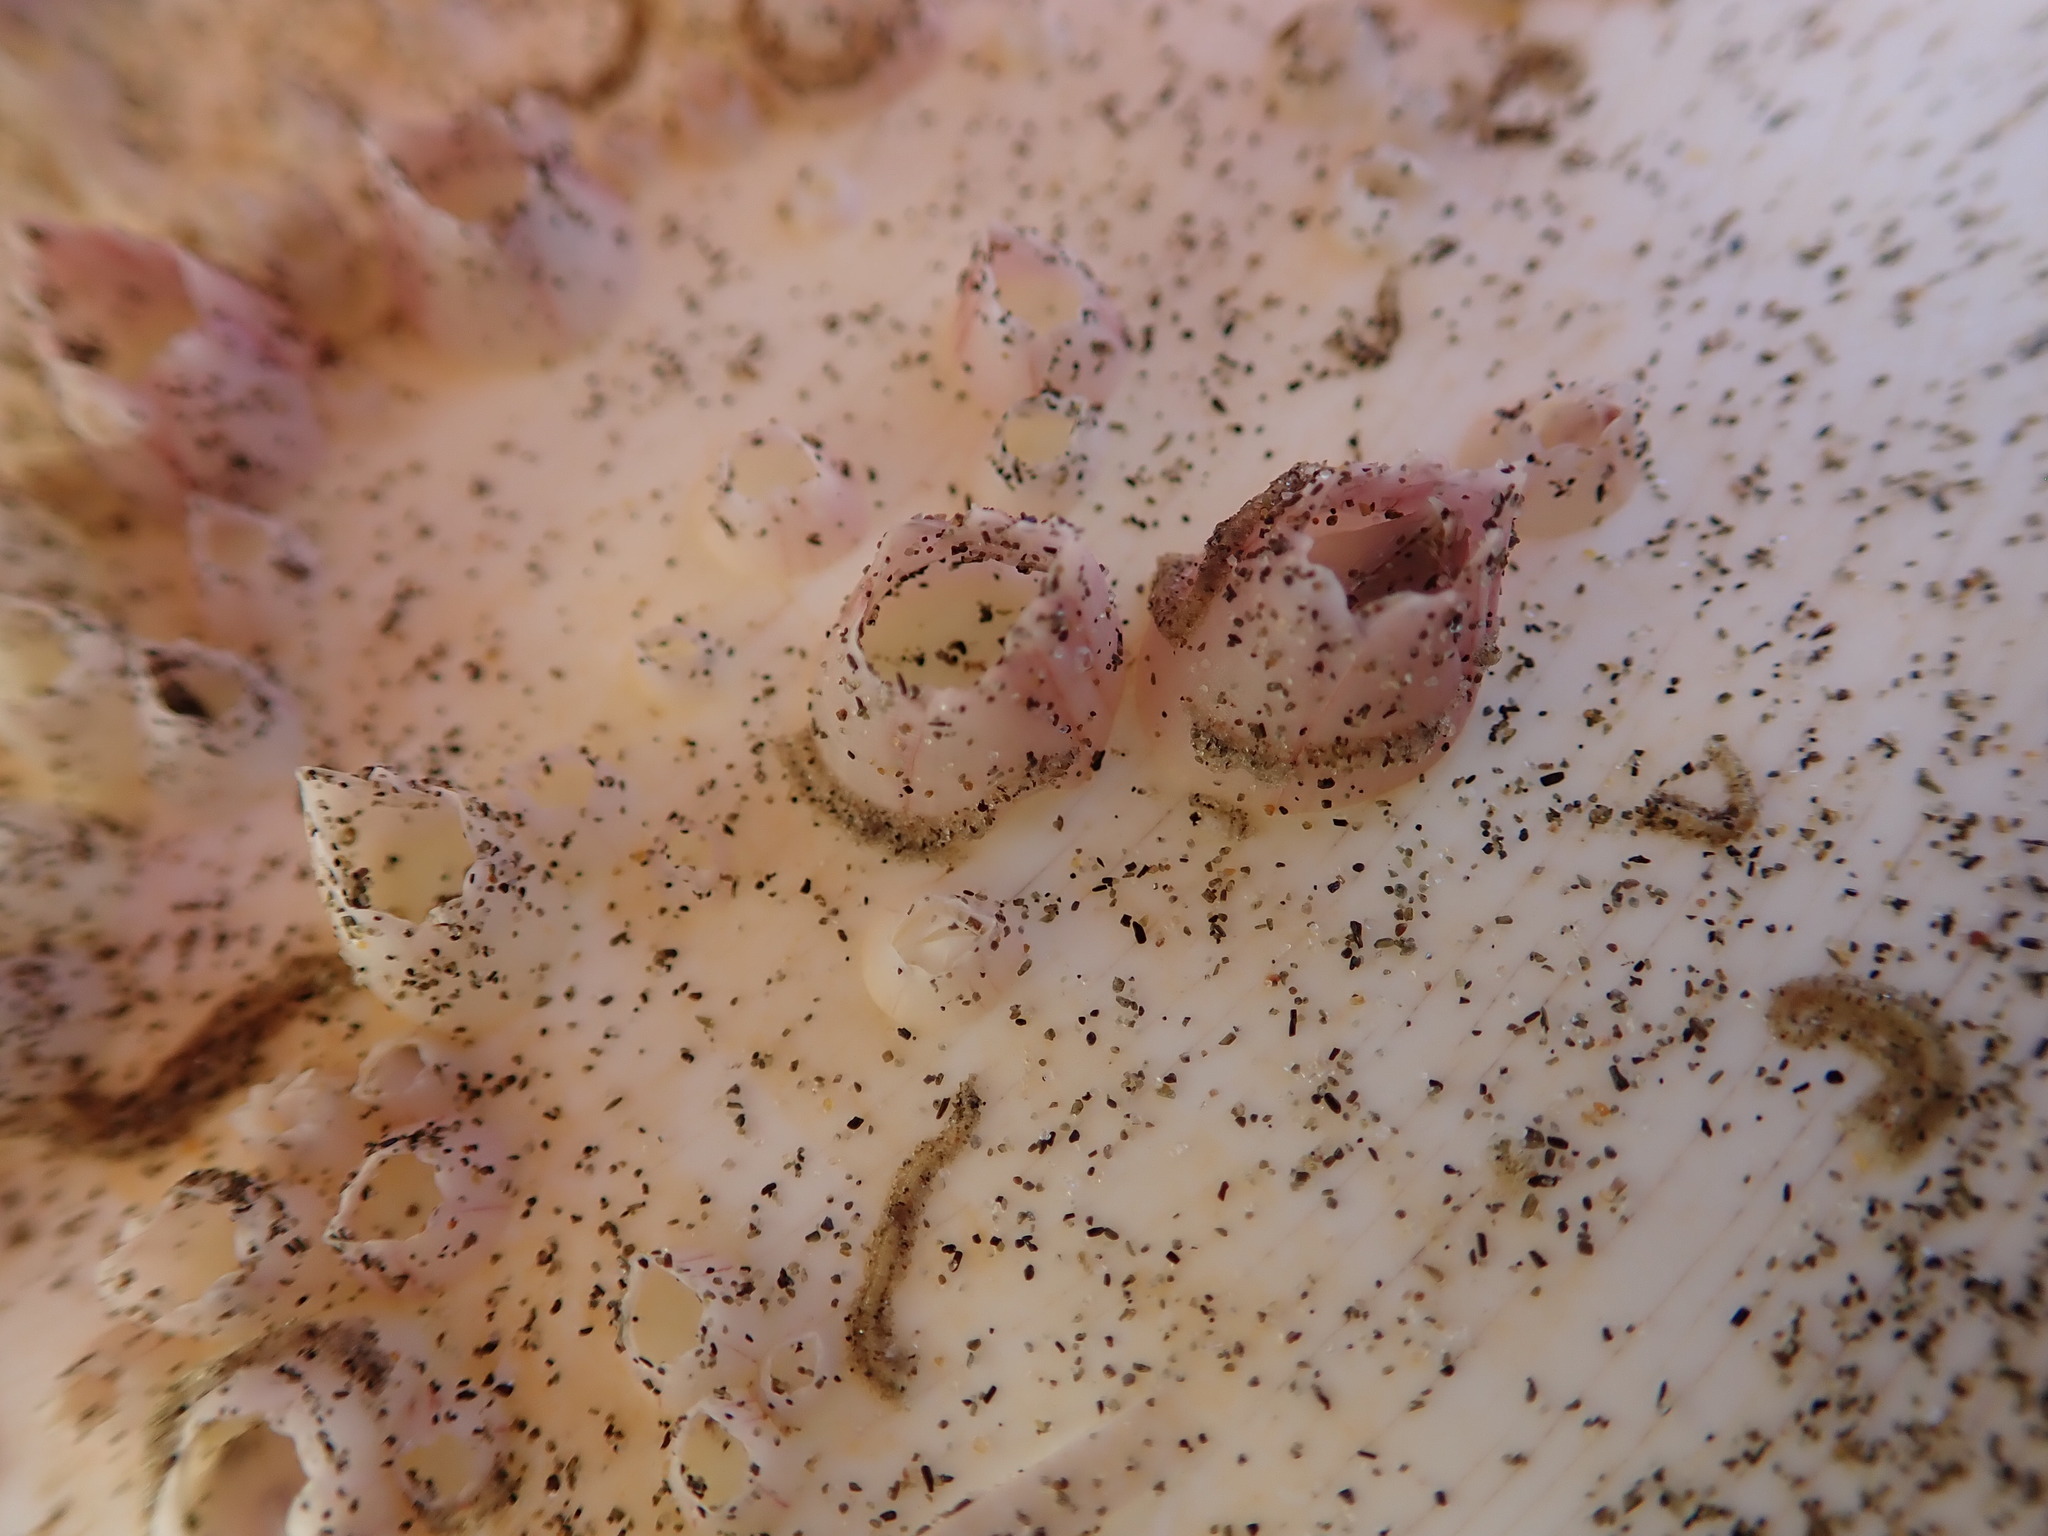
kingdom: Animalia
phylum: Arthropoda
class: Maxillopoda
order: Sessilia
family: Balanidae
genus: Notomegabalanus
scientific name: Notomegabalanus decorus
